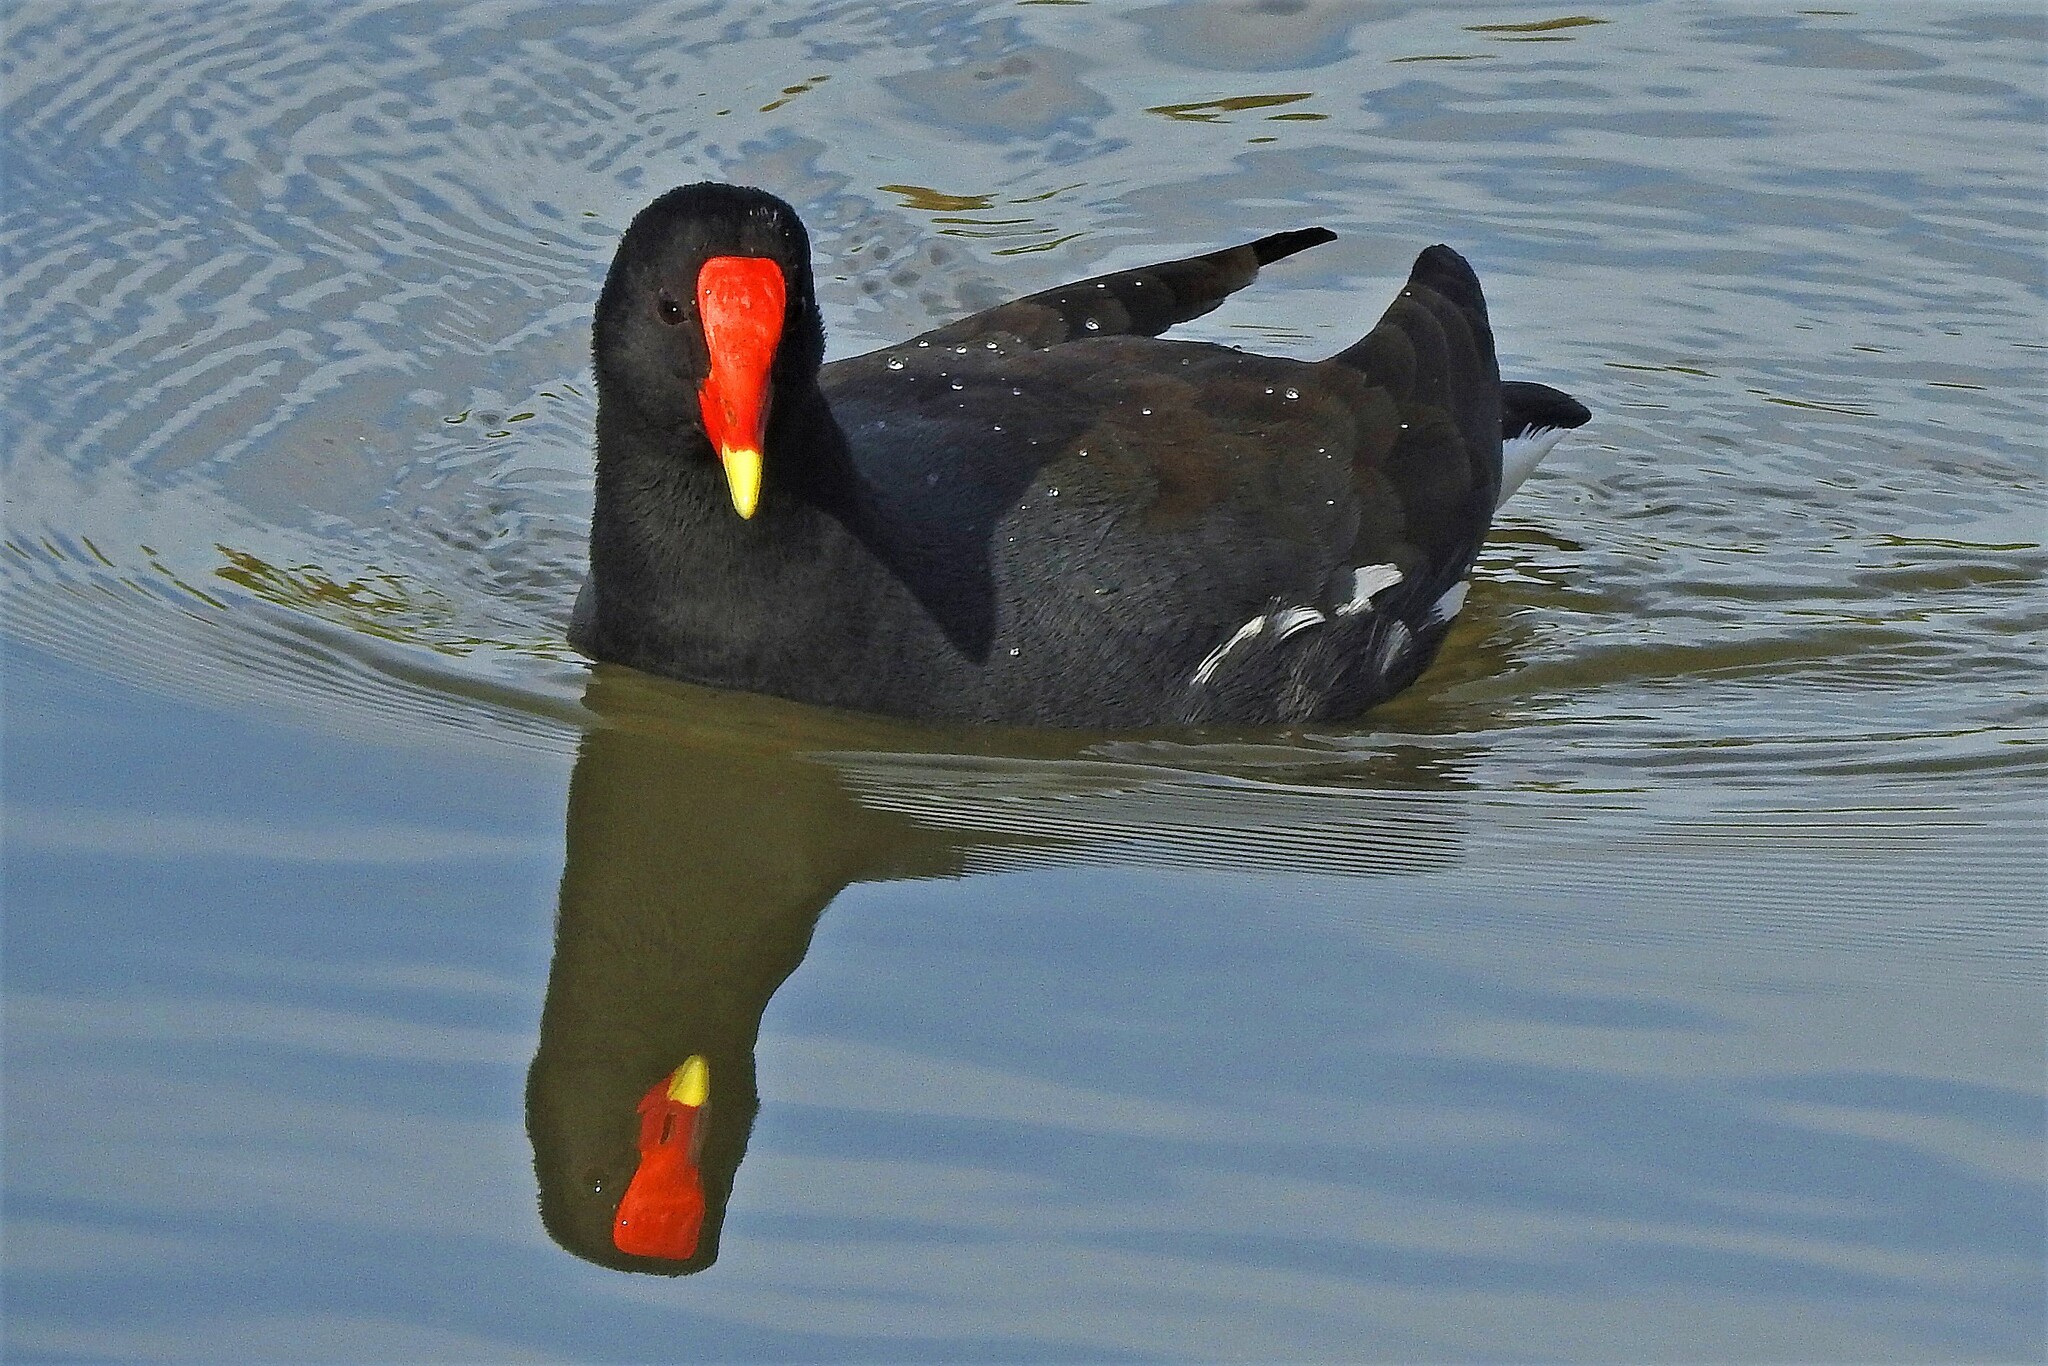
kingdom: Animalia
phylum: Chordata
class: Aves
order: Gruiformes
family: Rallidae
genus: Gallinula
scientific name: Gallinula chloropus
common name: Common moorhen
